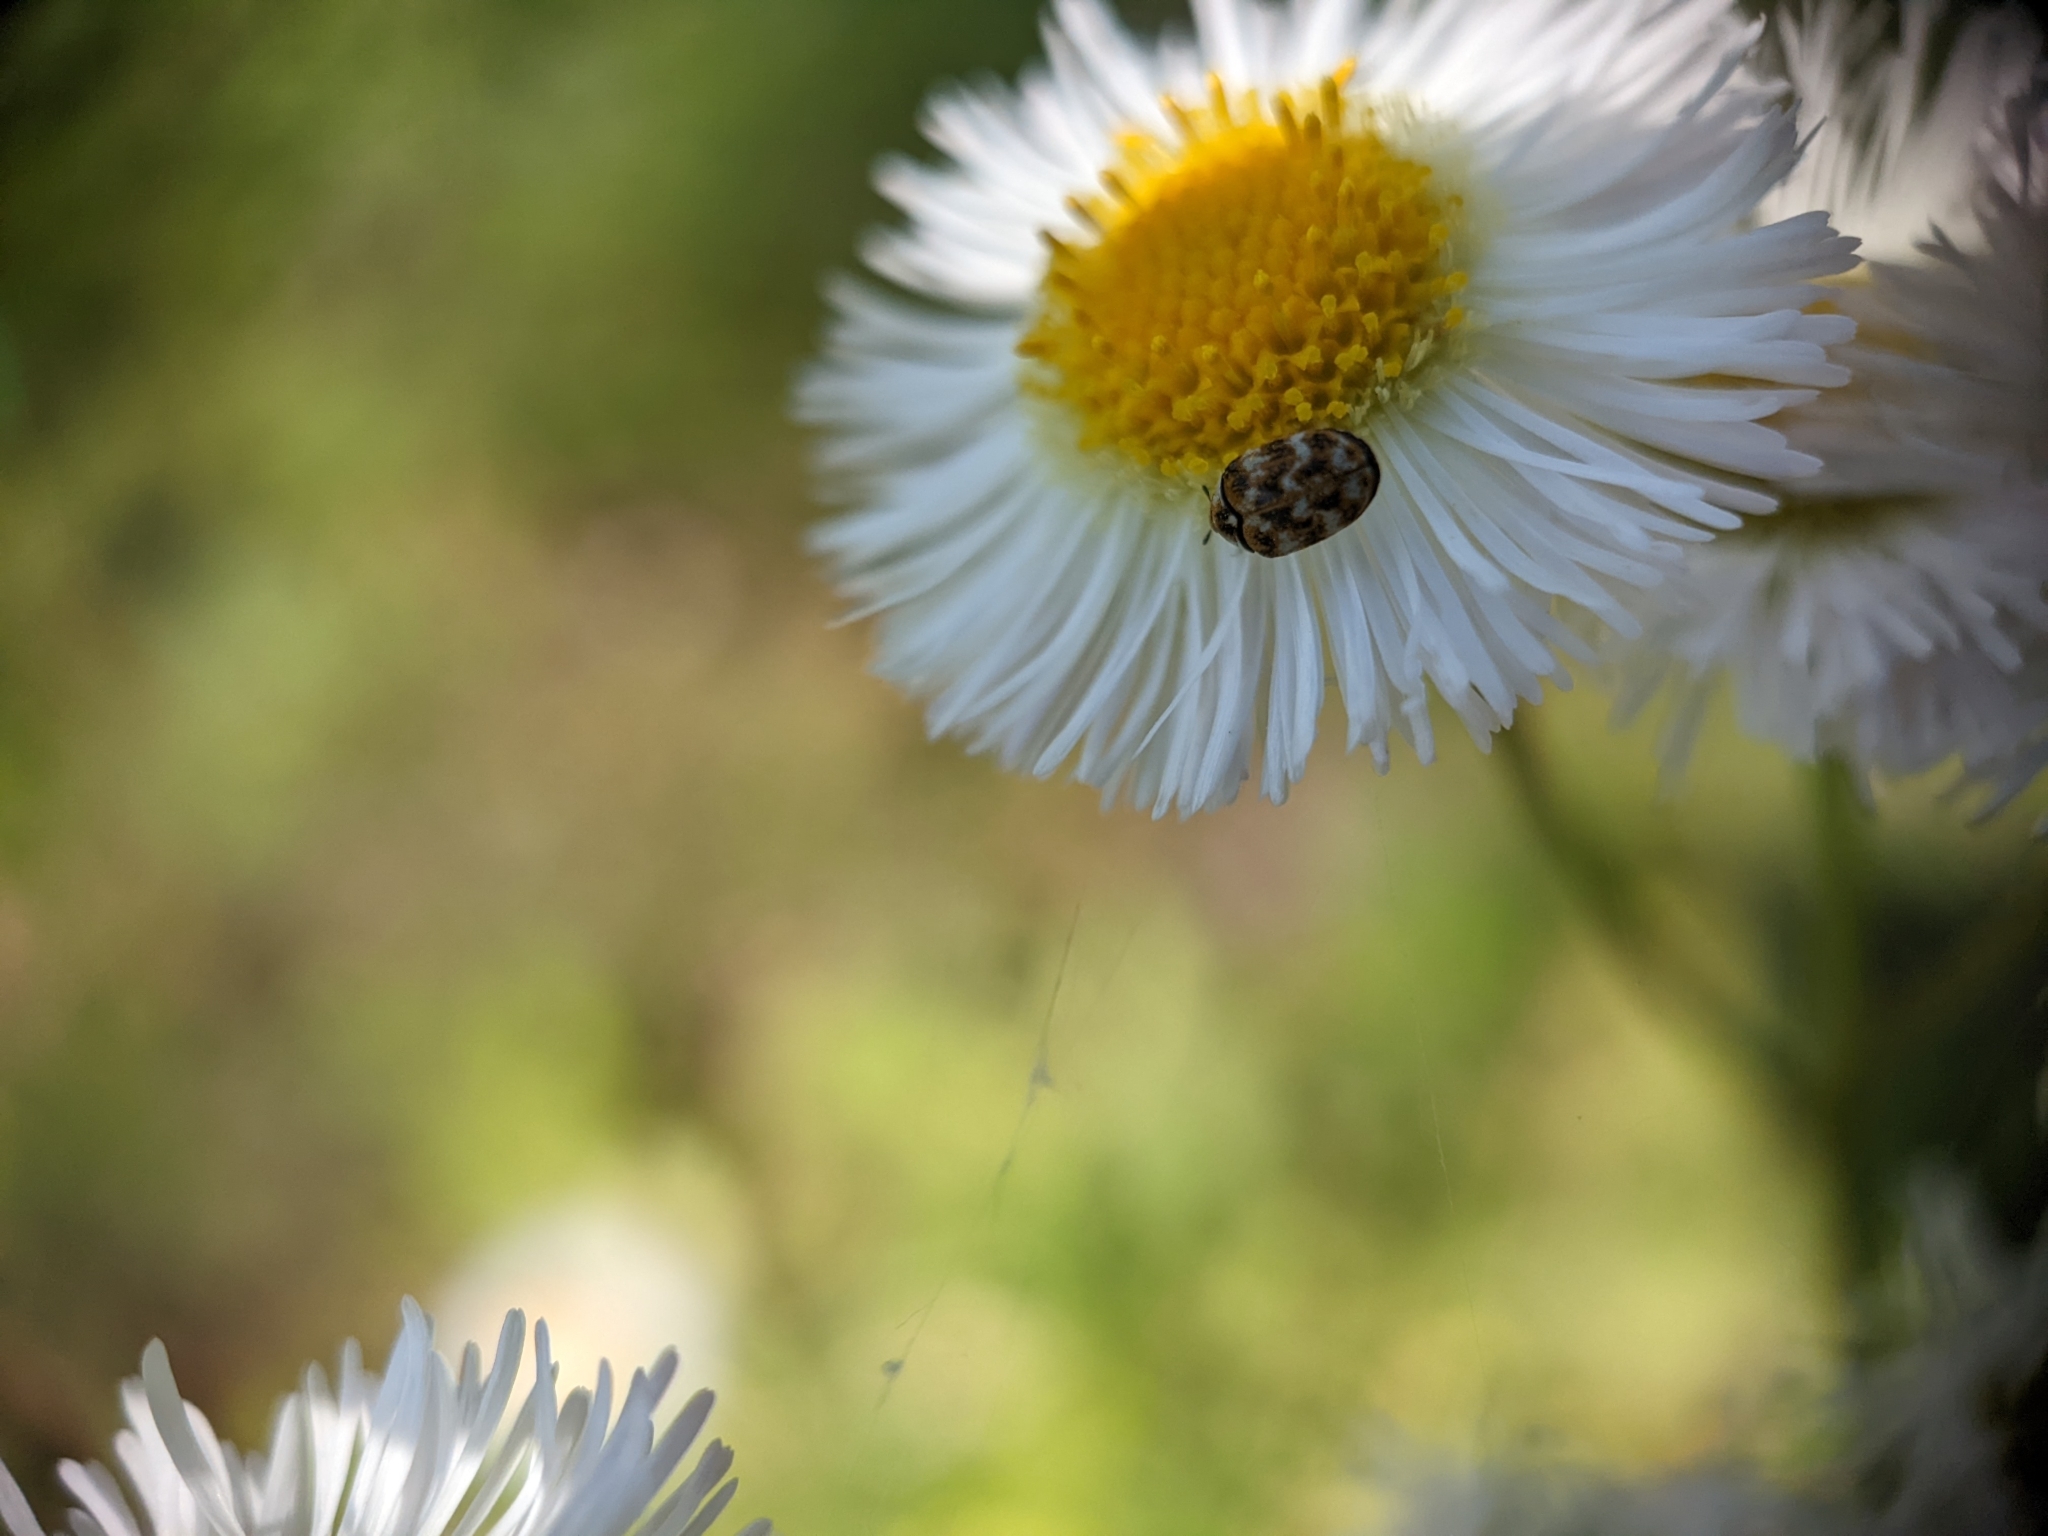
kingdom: Animalia
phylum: Arthropoda
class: Insecta
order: Coleoptera
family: Dermestidae
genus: Anthrenus
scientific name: Anthrenus verbasci
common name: Varied carpet beetle
